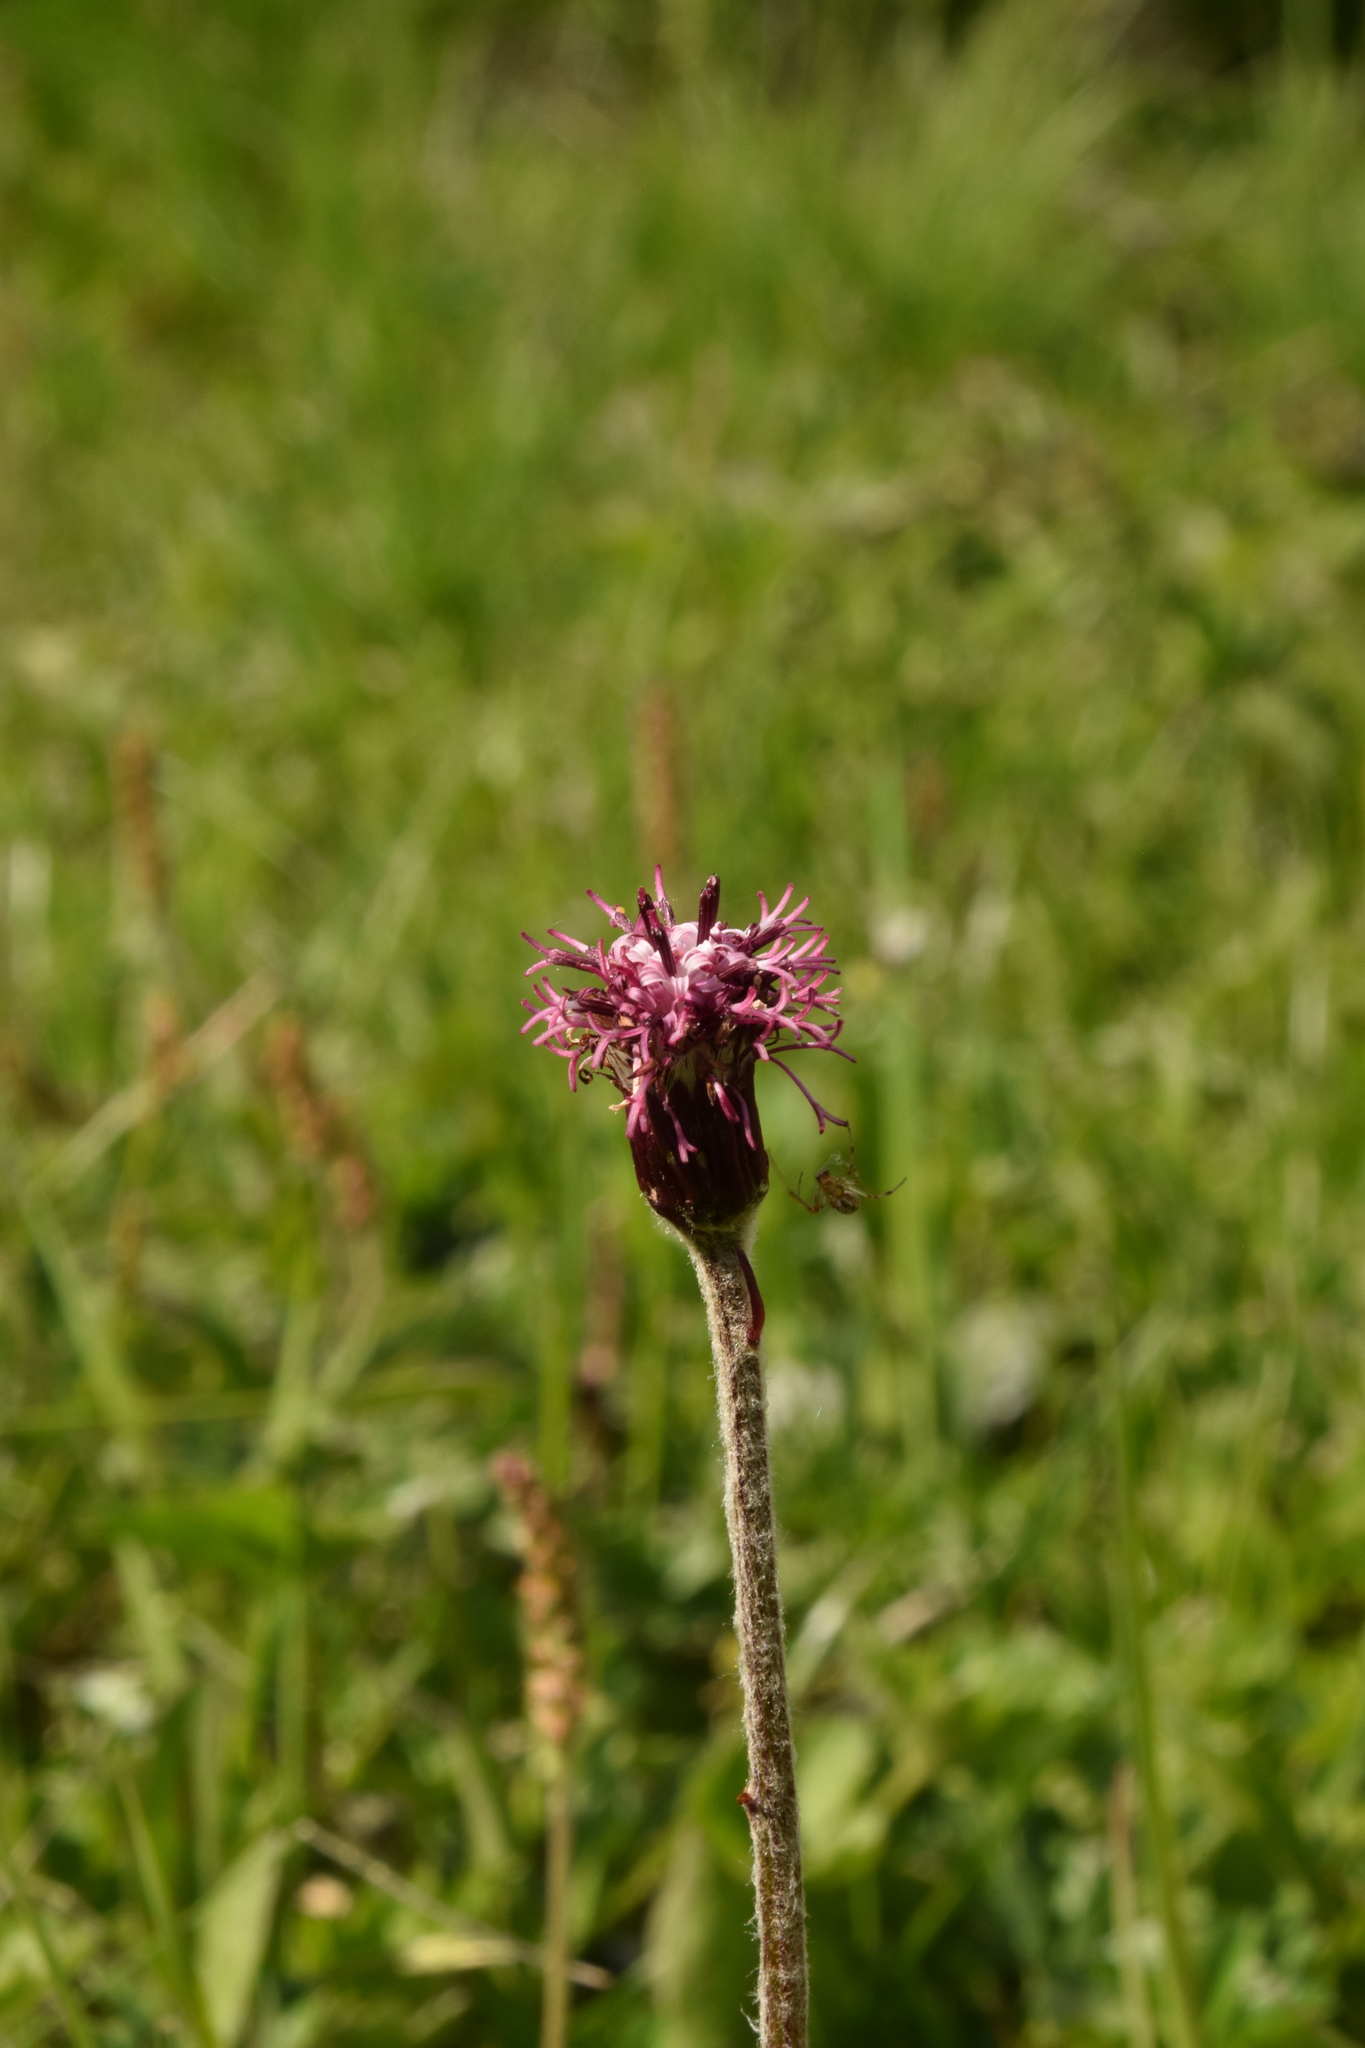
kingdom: Plantae
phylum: Tracheophyta
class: Magnoliopsida
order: Asterales
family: Asteraceae
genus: Homogyne
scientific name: Homogyne alpina
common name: Purple colt's-foot
